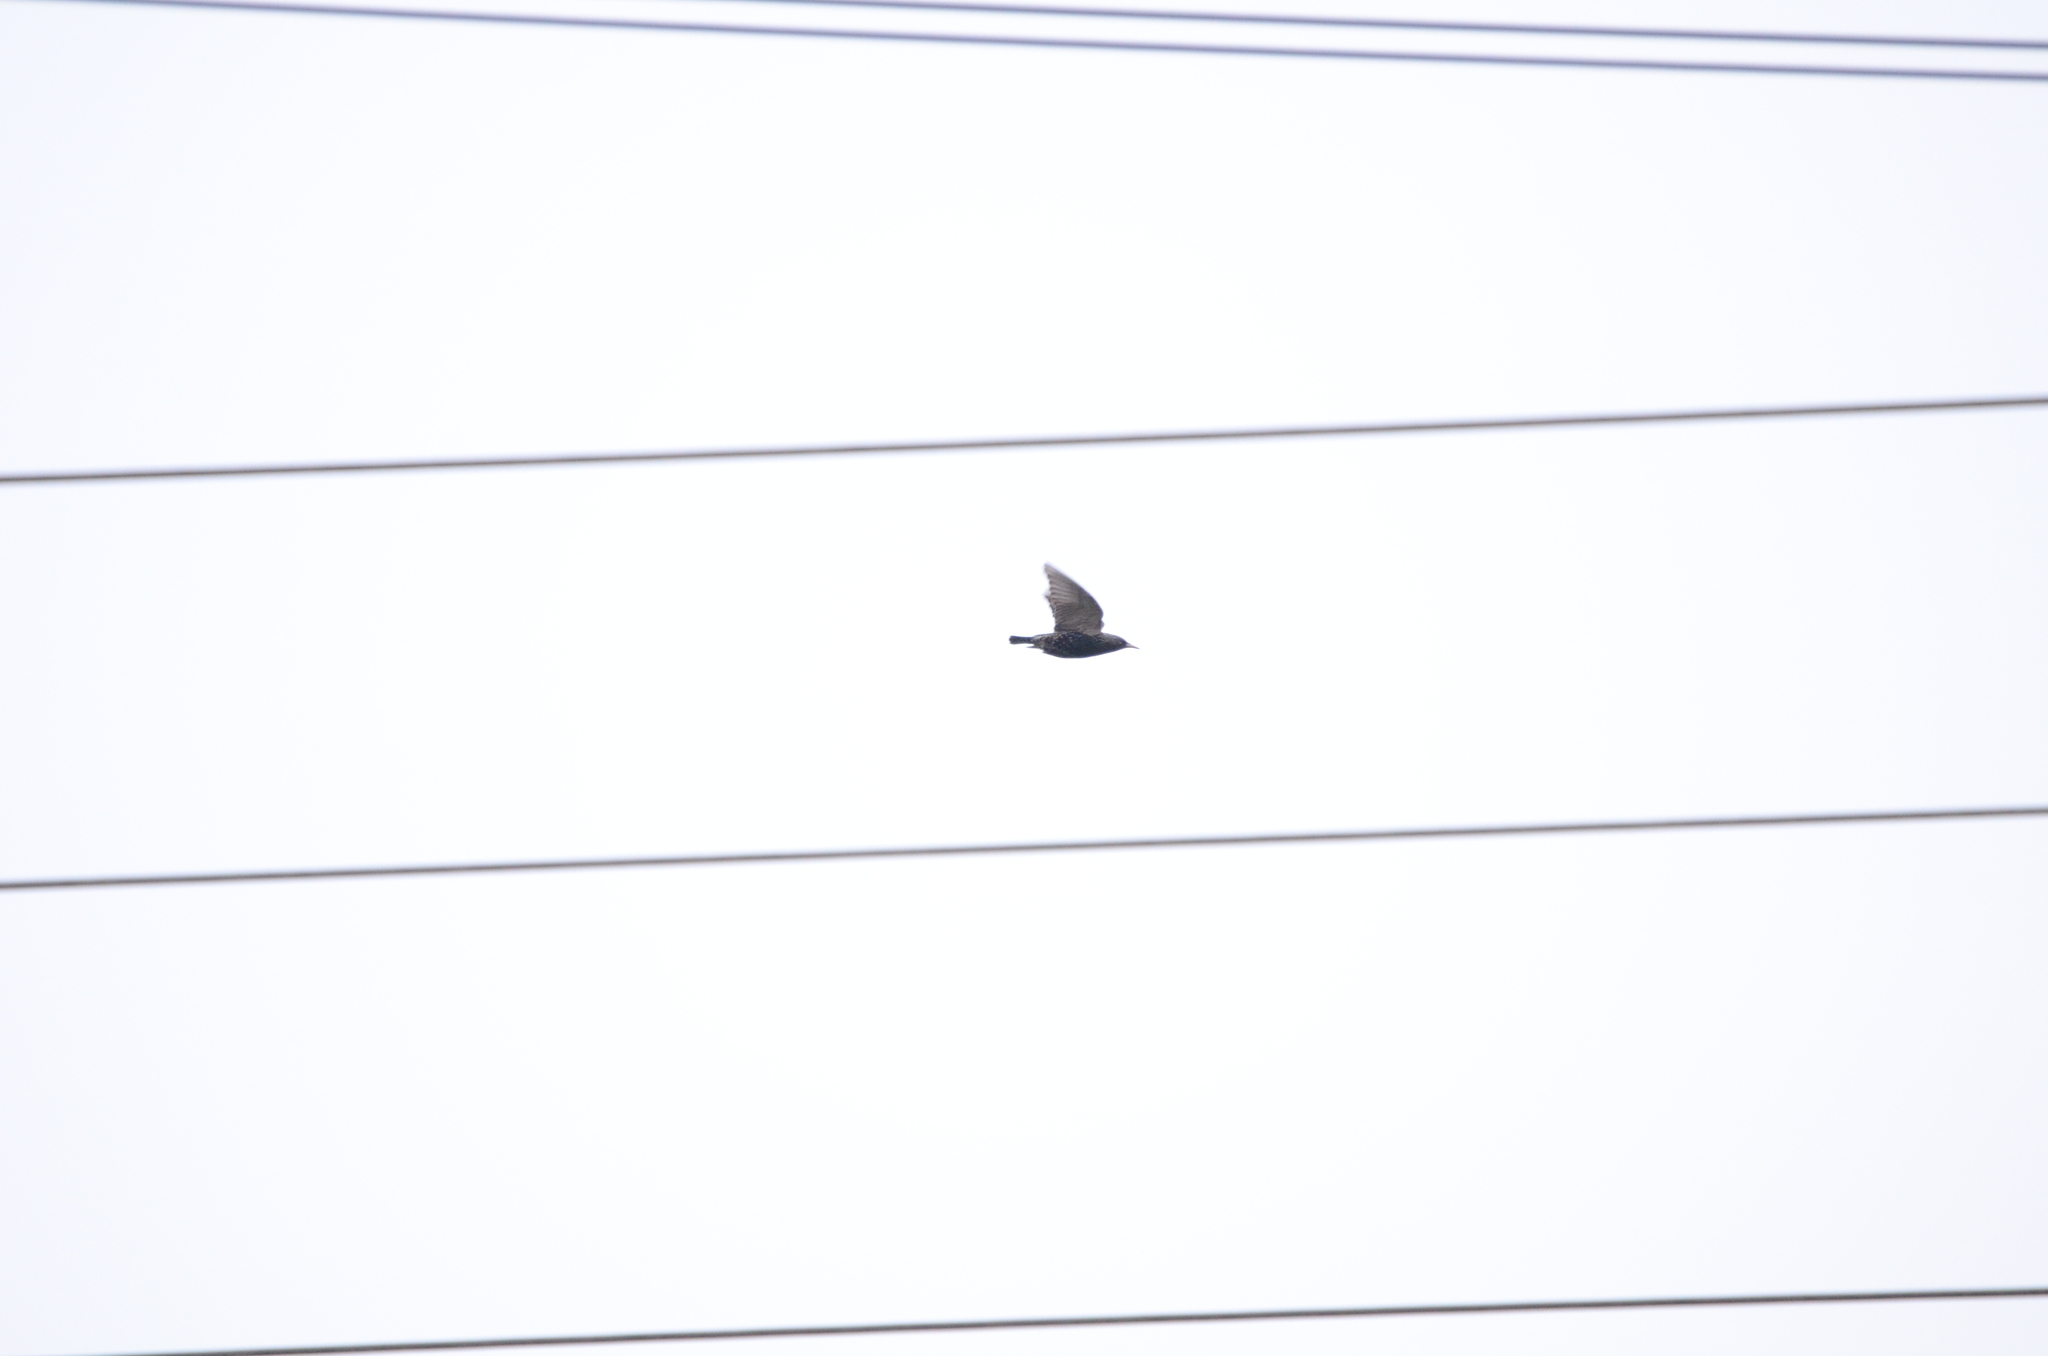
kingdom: Animalia
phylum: Chordata
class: Aves
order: Passeriformes
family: Sturnidae
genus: Sturnus
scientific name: Sturnus vulgaris
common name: Common starling
